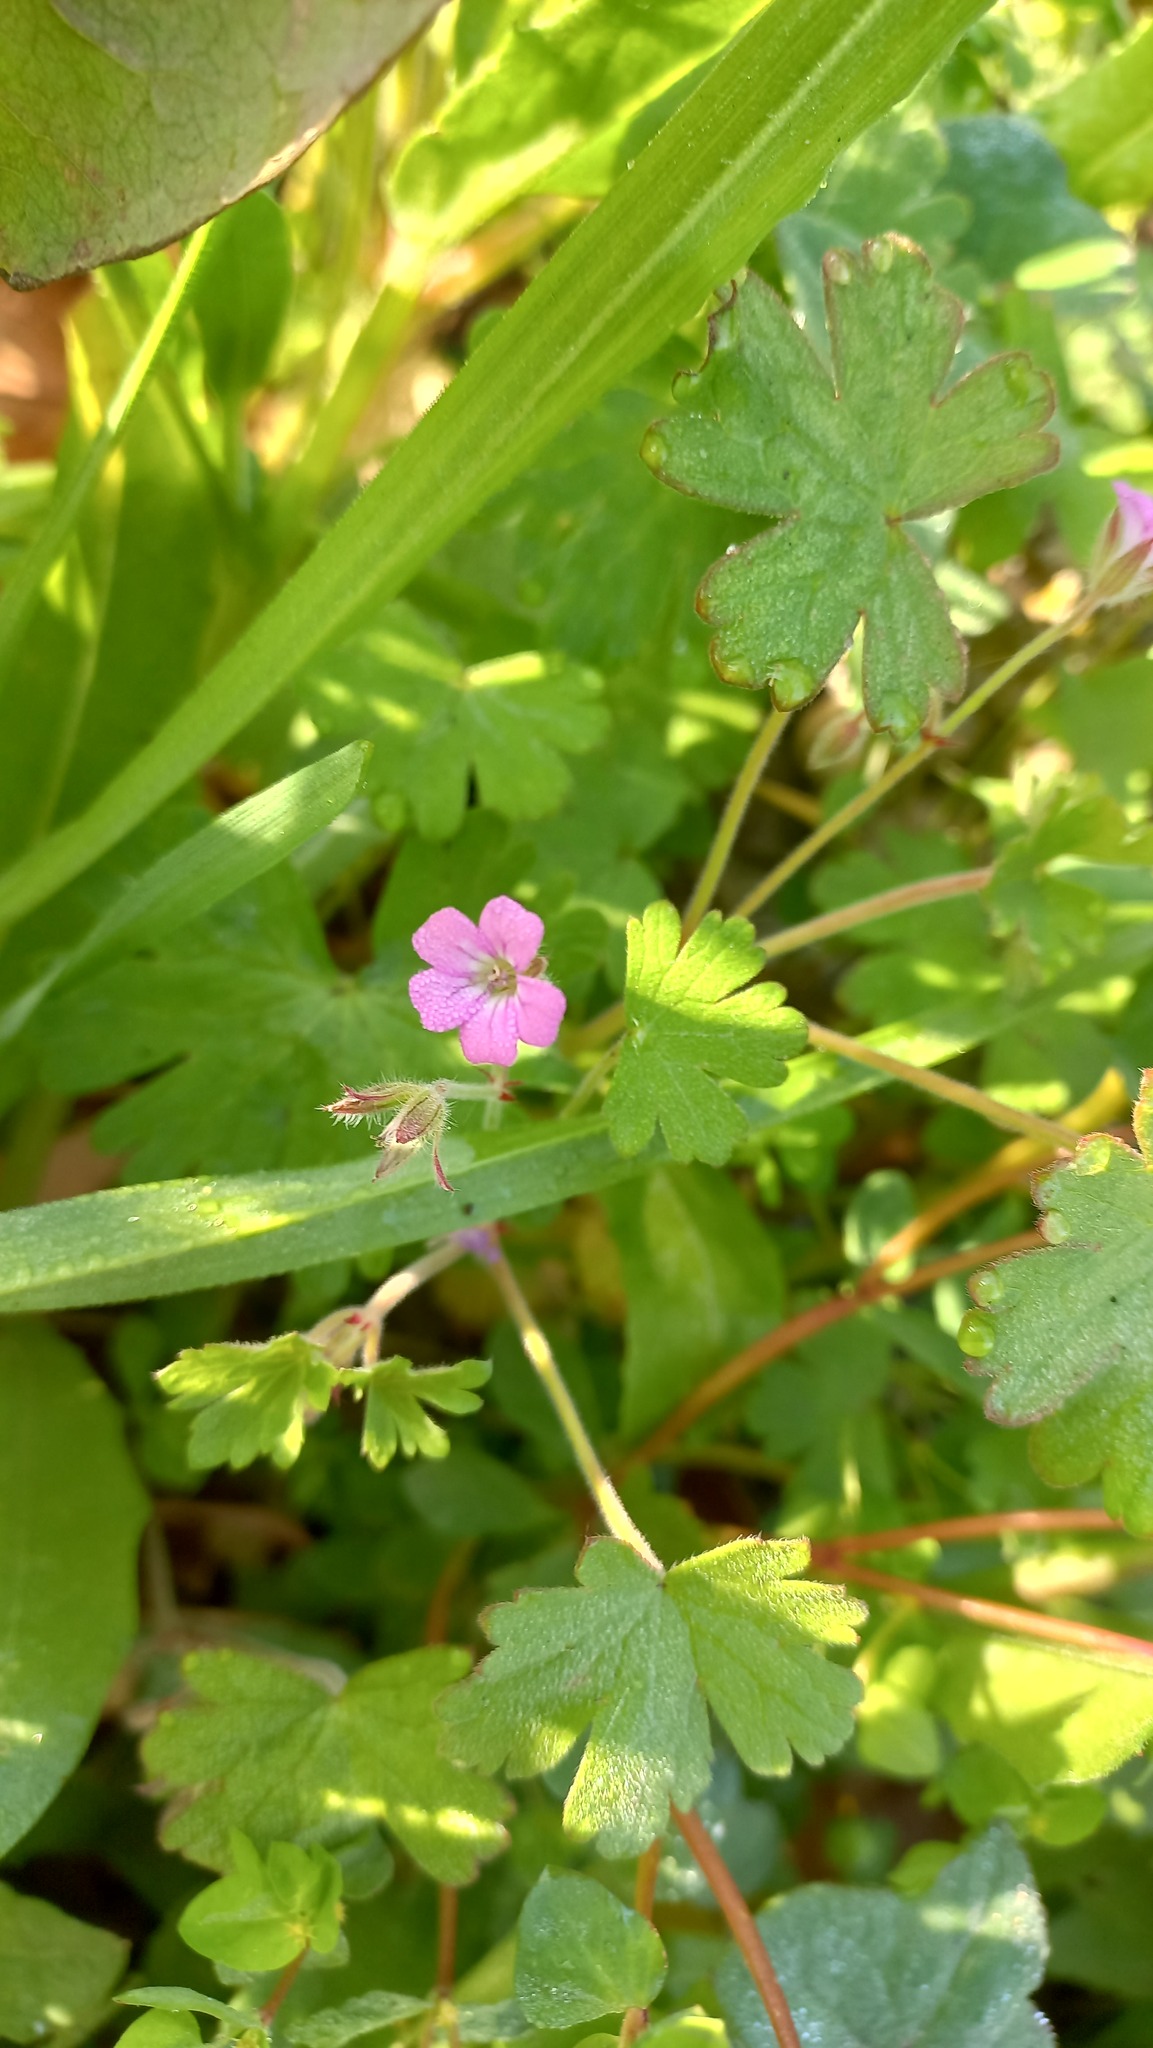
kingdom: Plantae
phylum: Tracheophyta
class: Magnoliopsida
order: Geraniales
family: Geraniaceae
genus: Geranium
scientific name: Geranium rotundifolium
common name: Round-leaved crane's-bill
